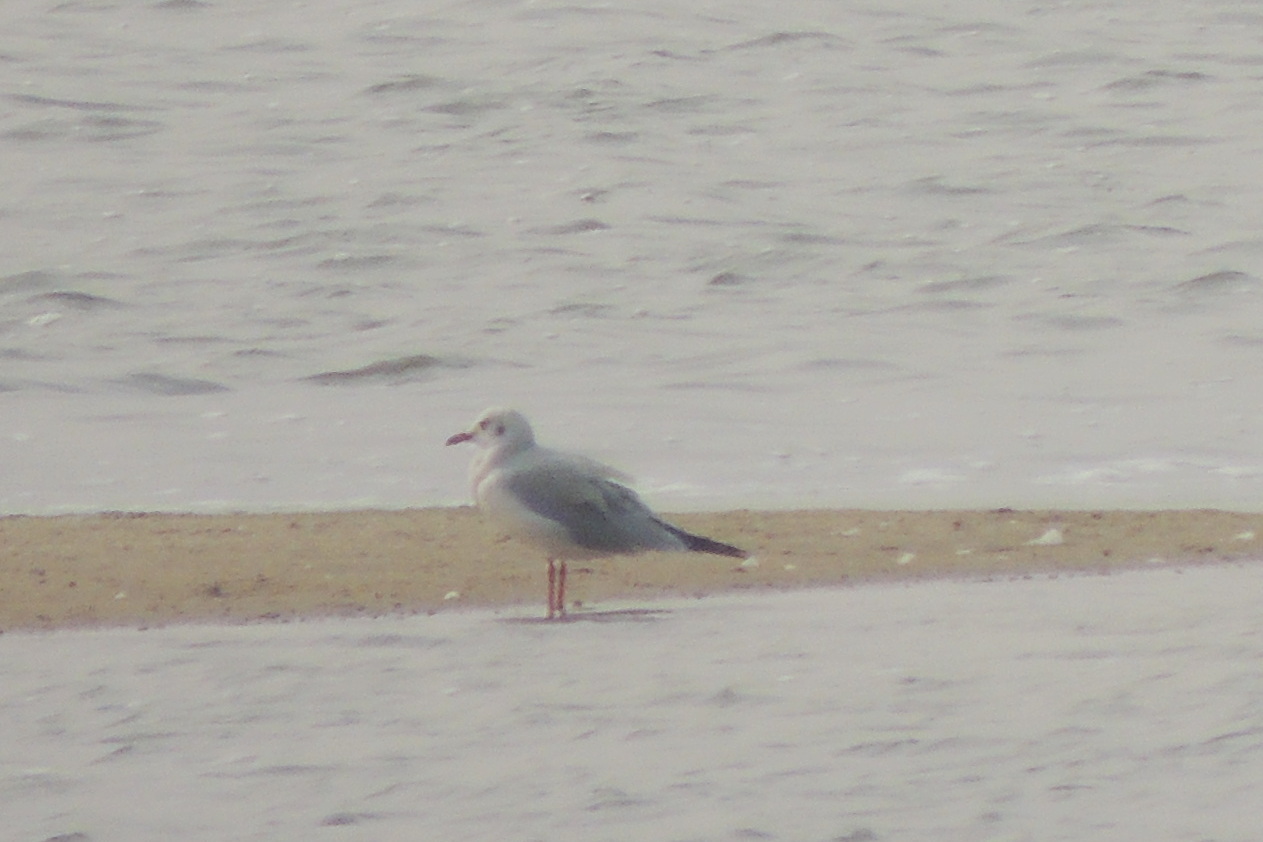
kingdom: Animalia
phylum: Chordata
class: Aves
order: Charadriiformes
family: Laridae
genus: Chroicocephalus
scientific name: Chroicocephalus ridibundus
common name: Black-headed gull
